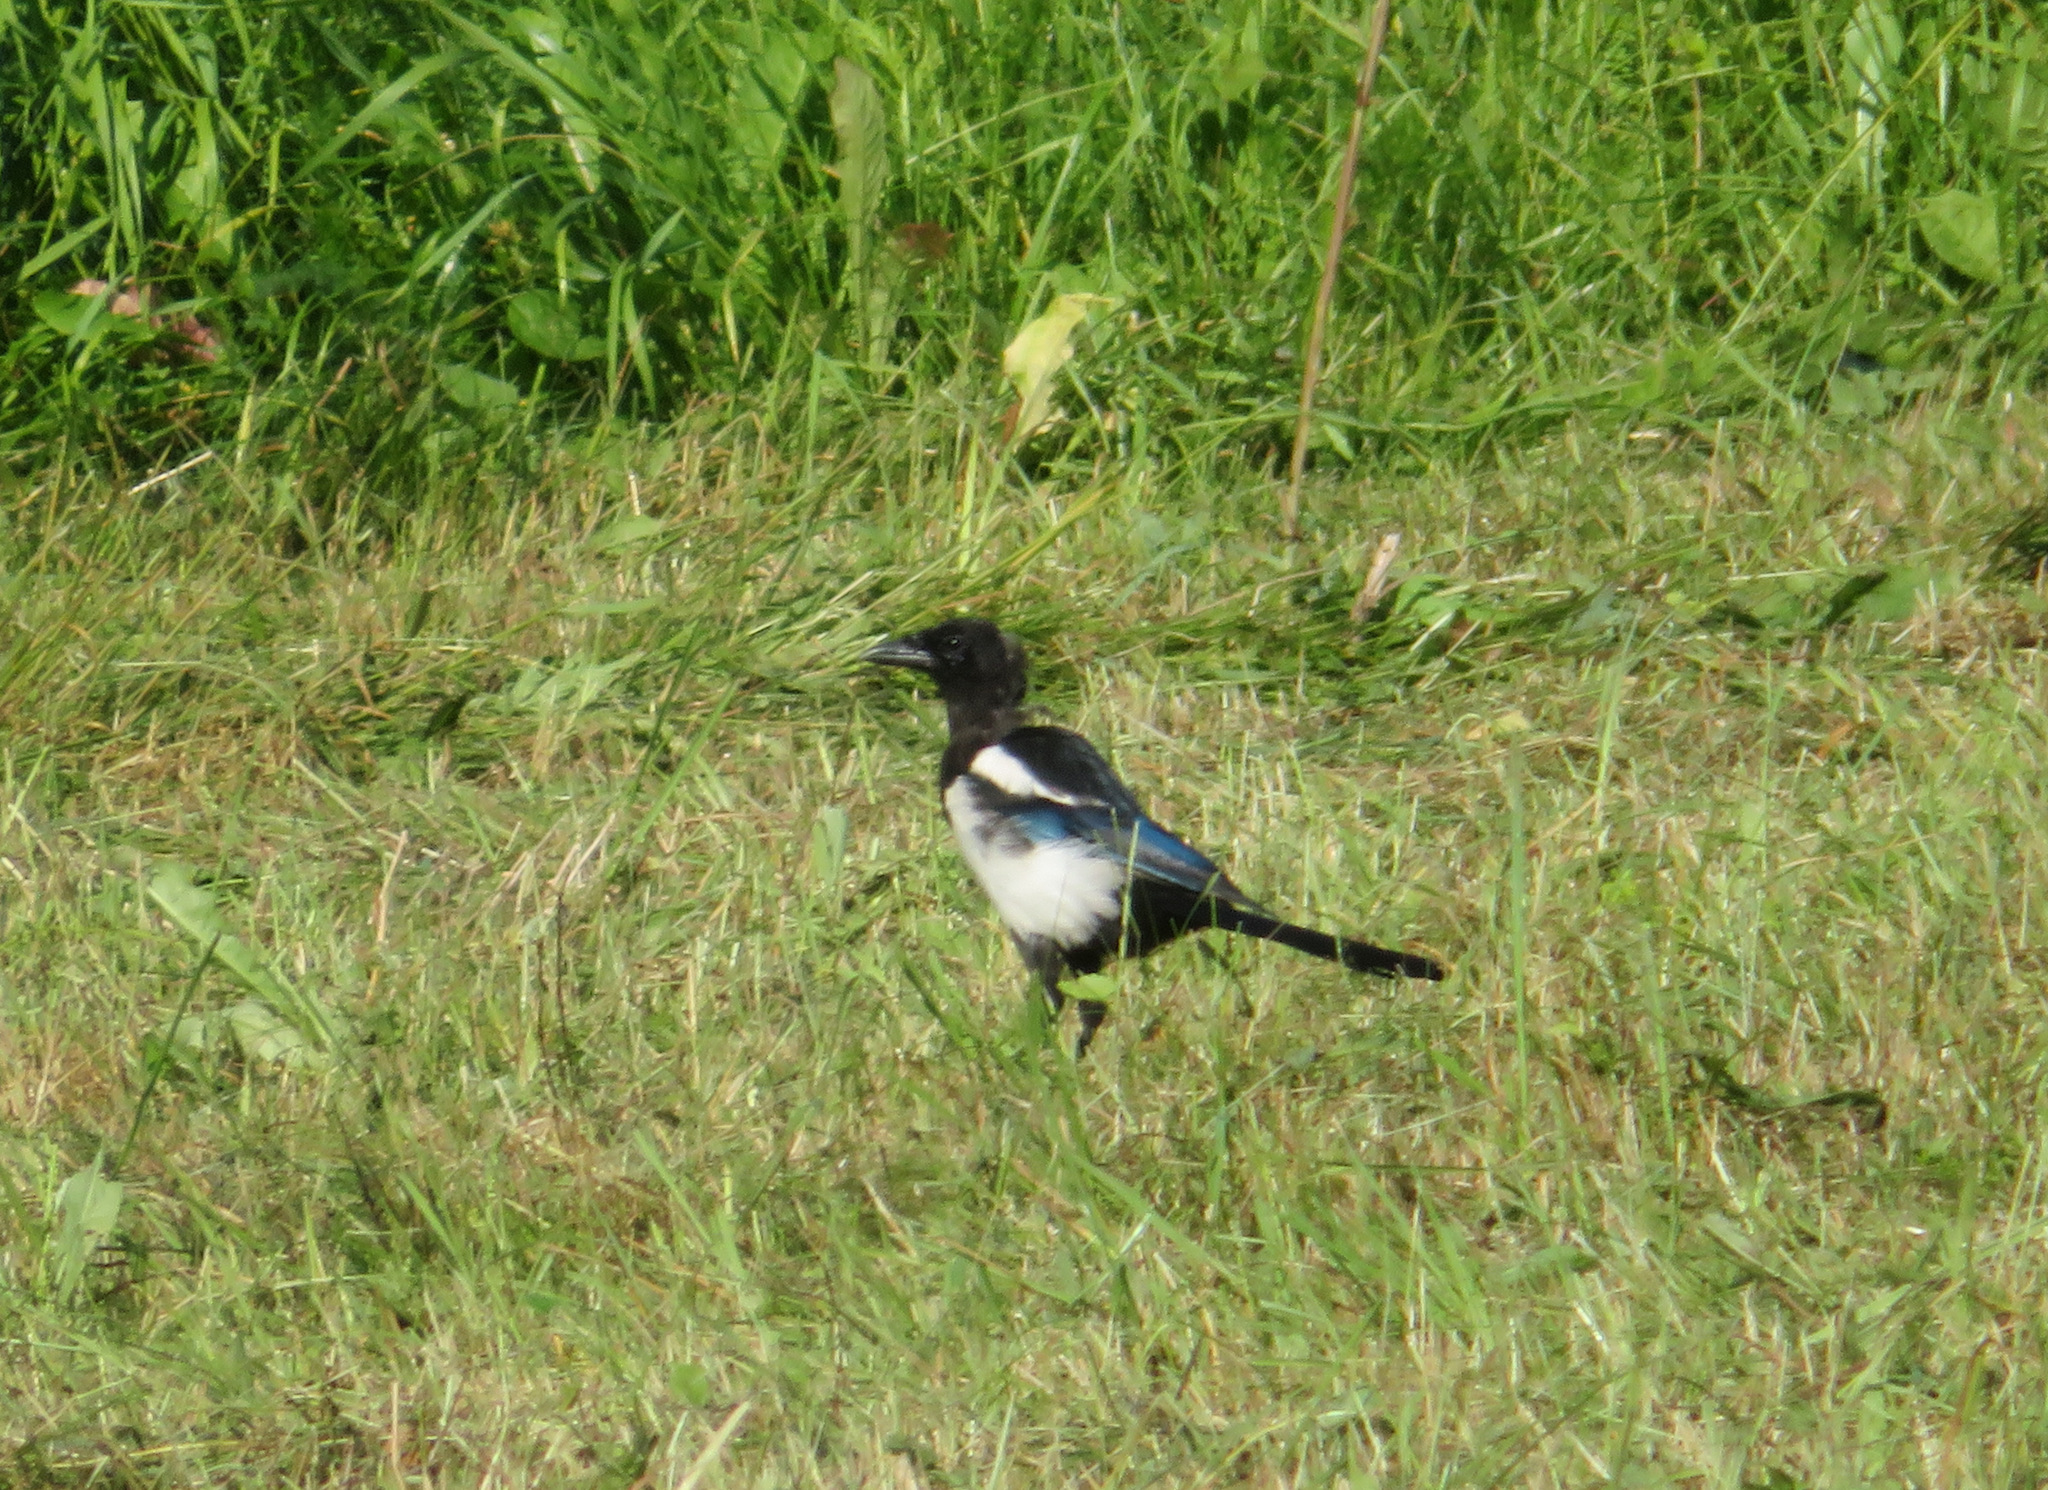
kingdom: Animalia
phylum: Chordata
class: Aves
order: Passeriformes
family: Corvidae
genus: Pica
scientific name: Pica pica
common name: Eurasian magpie
